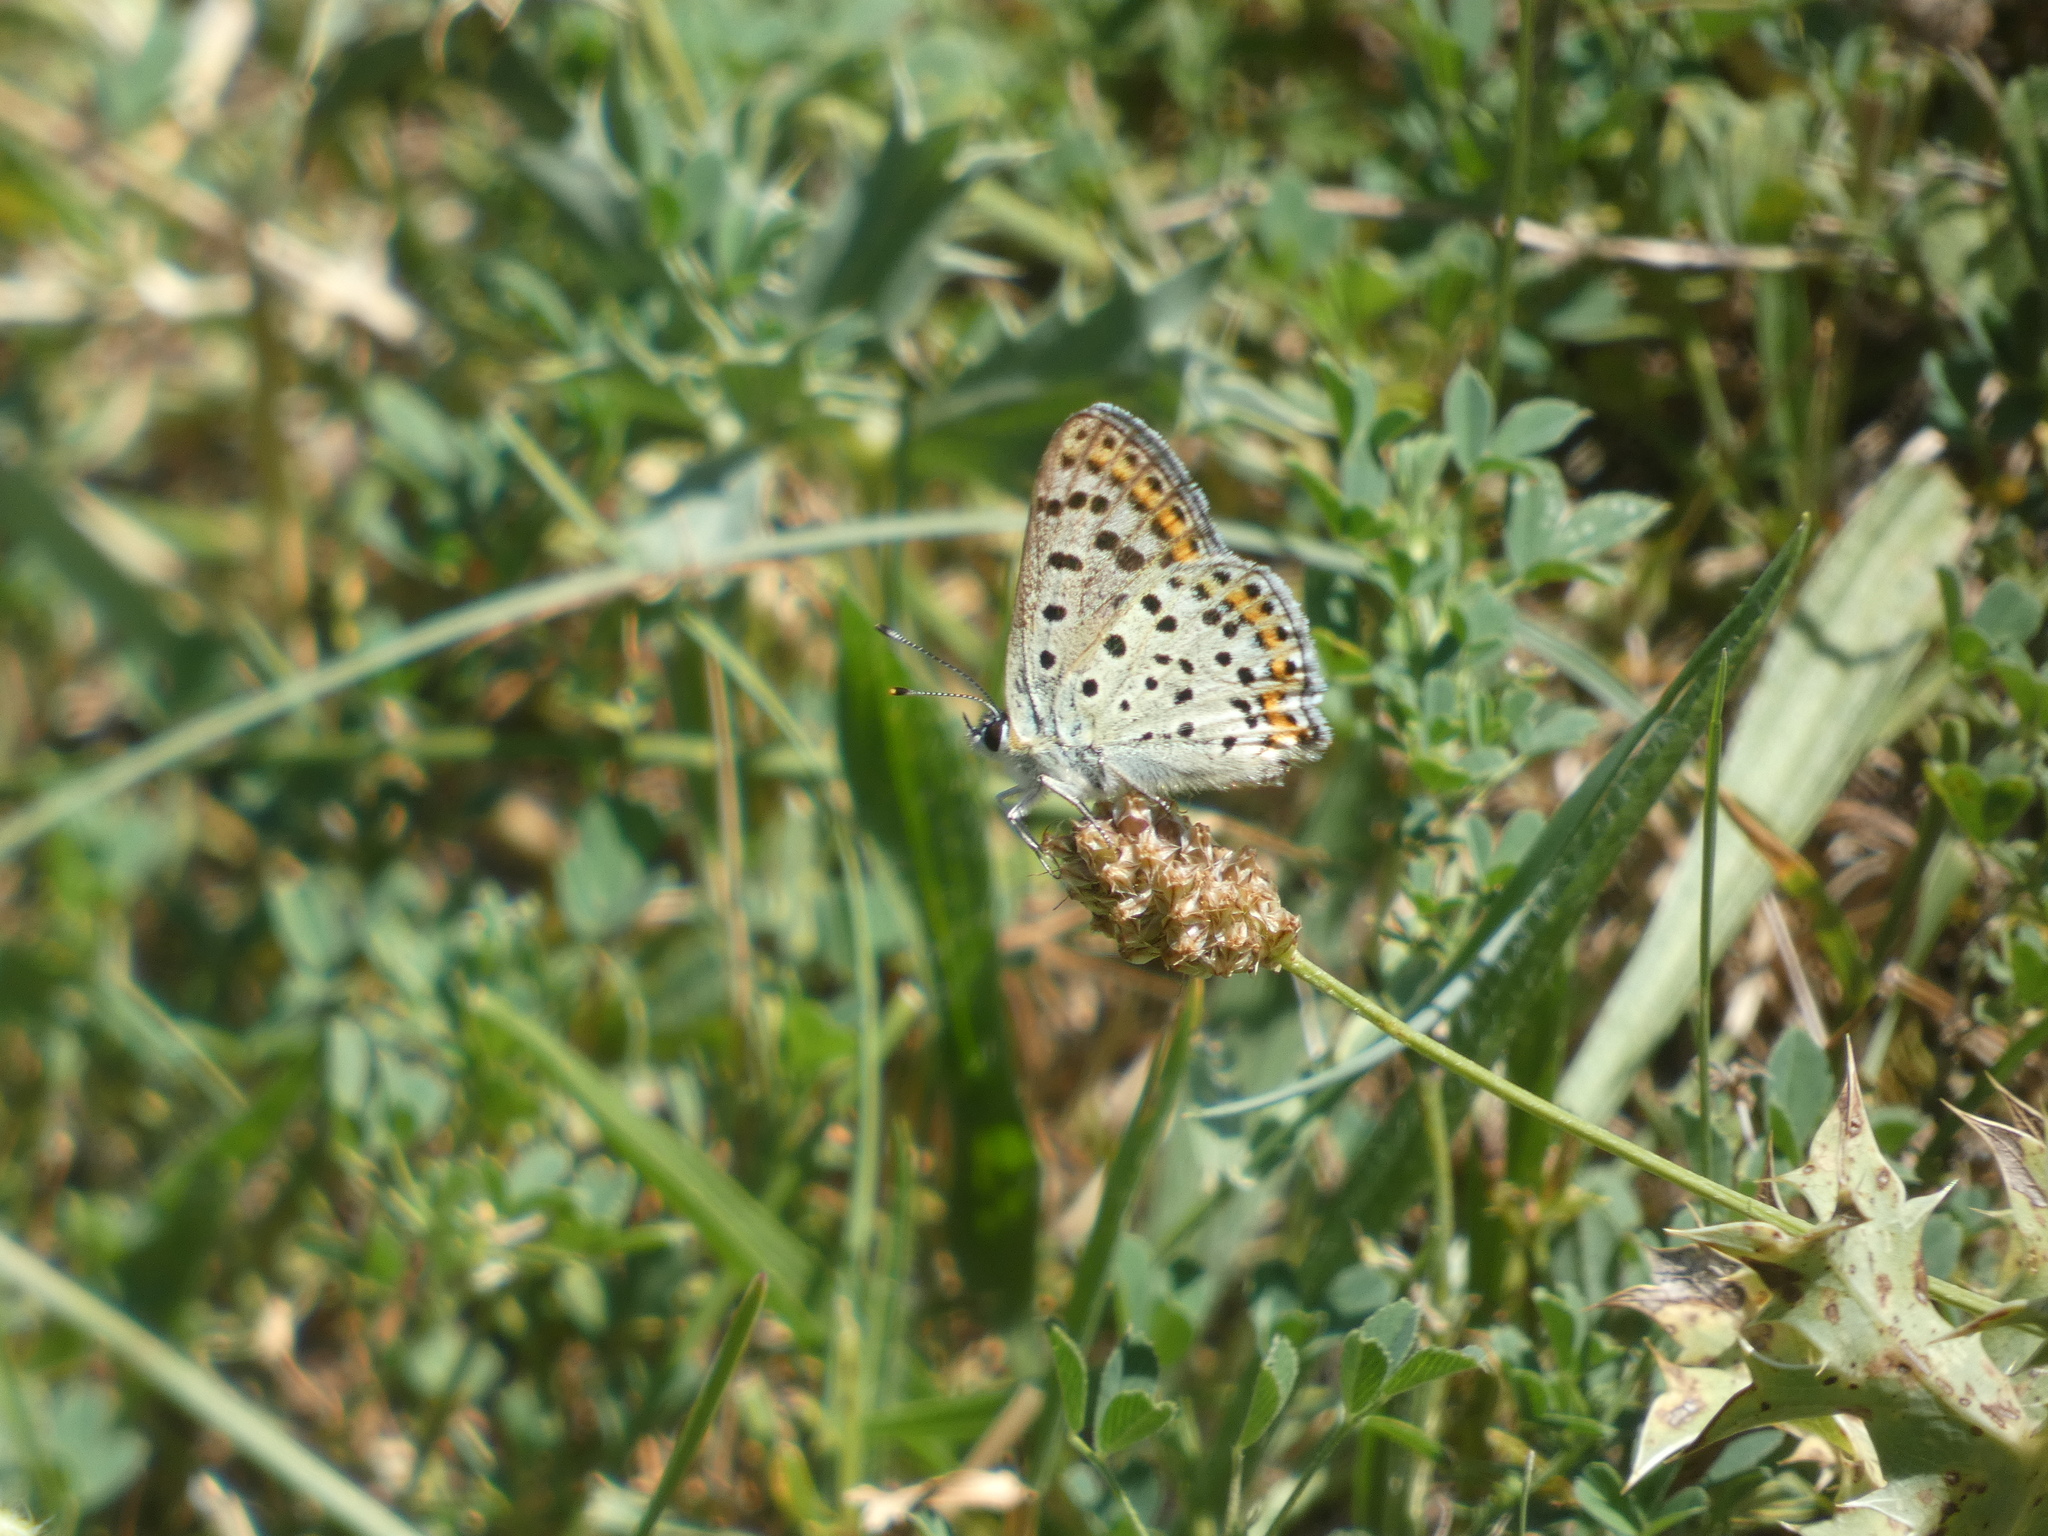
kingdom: Animalia
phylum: Arthropoda
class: Insecta
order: Lepidoptera
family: Lycaenidae
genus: Loweia
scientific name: Loweia tityrus
